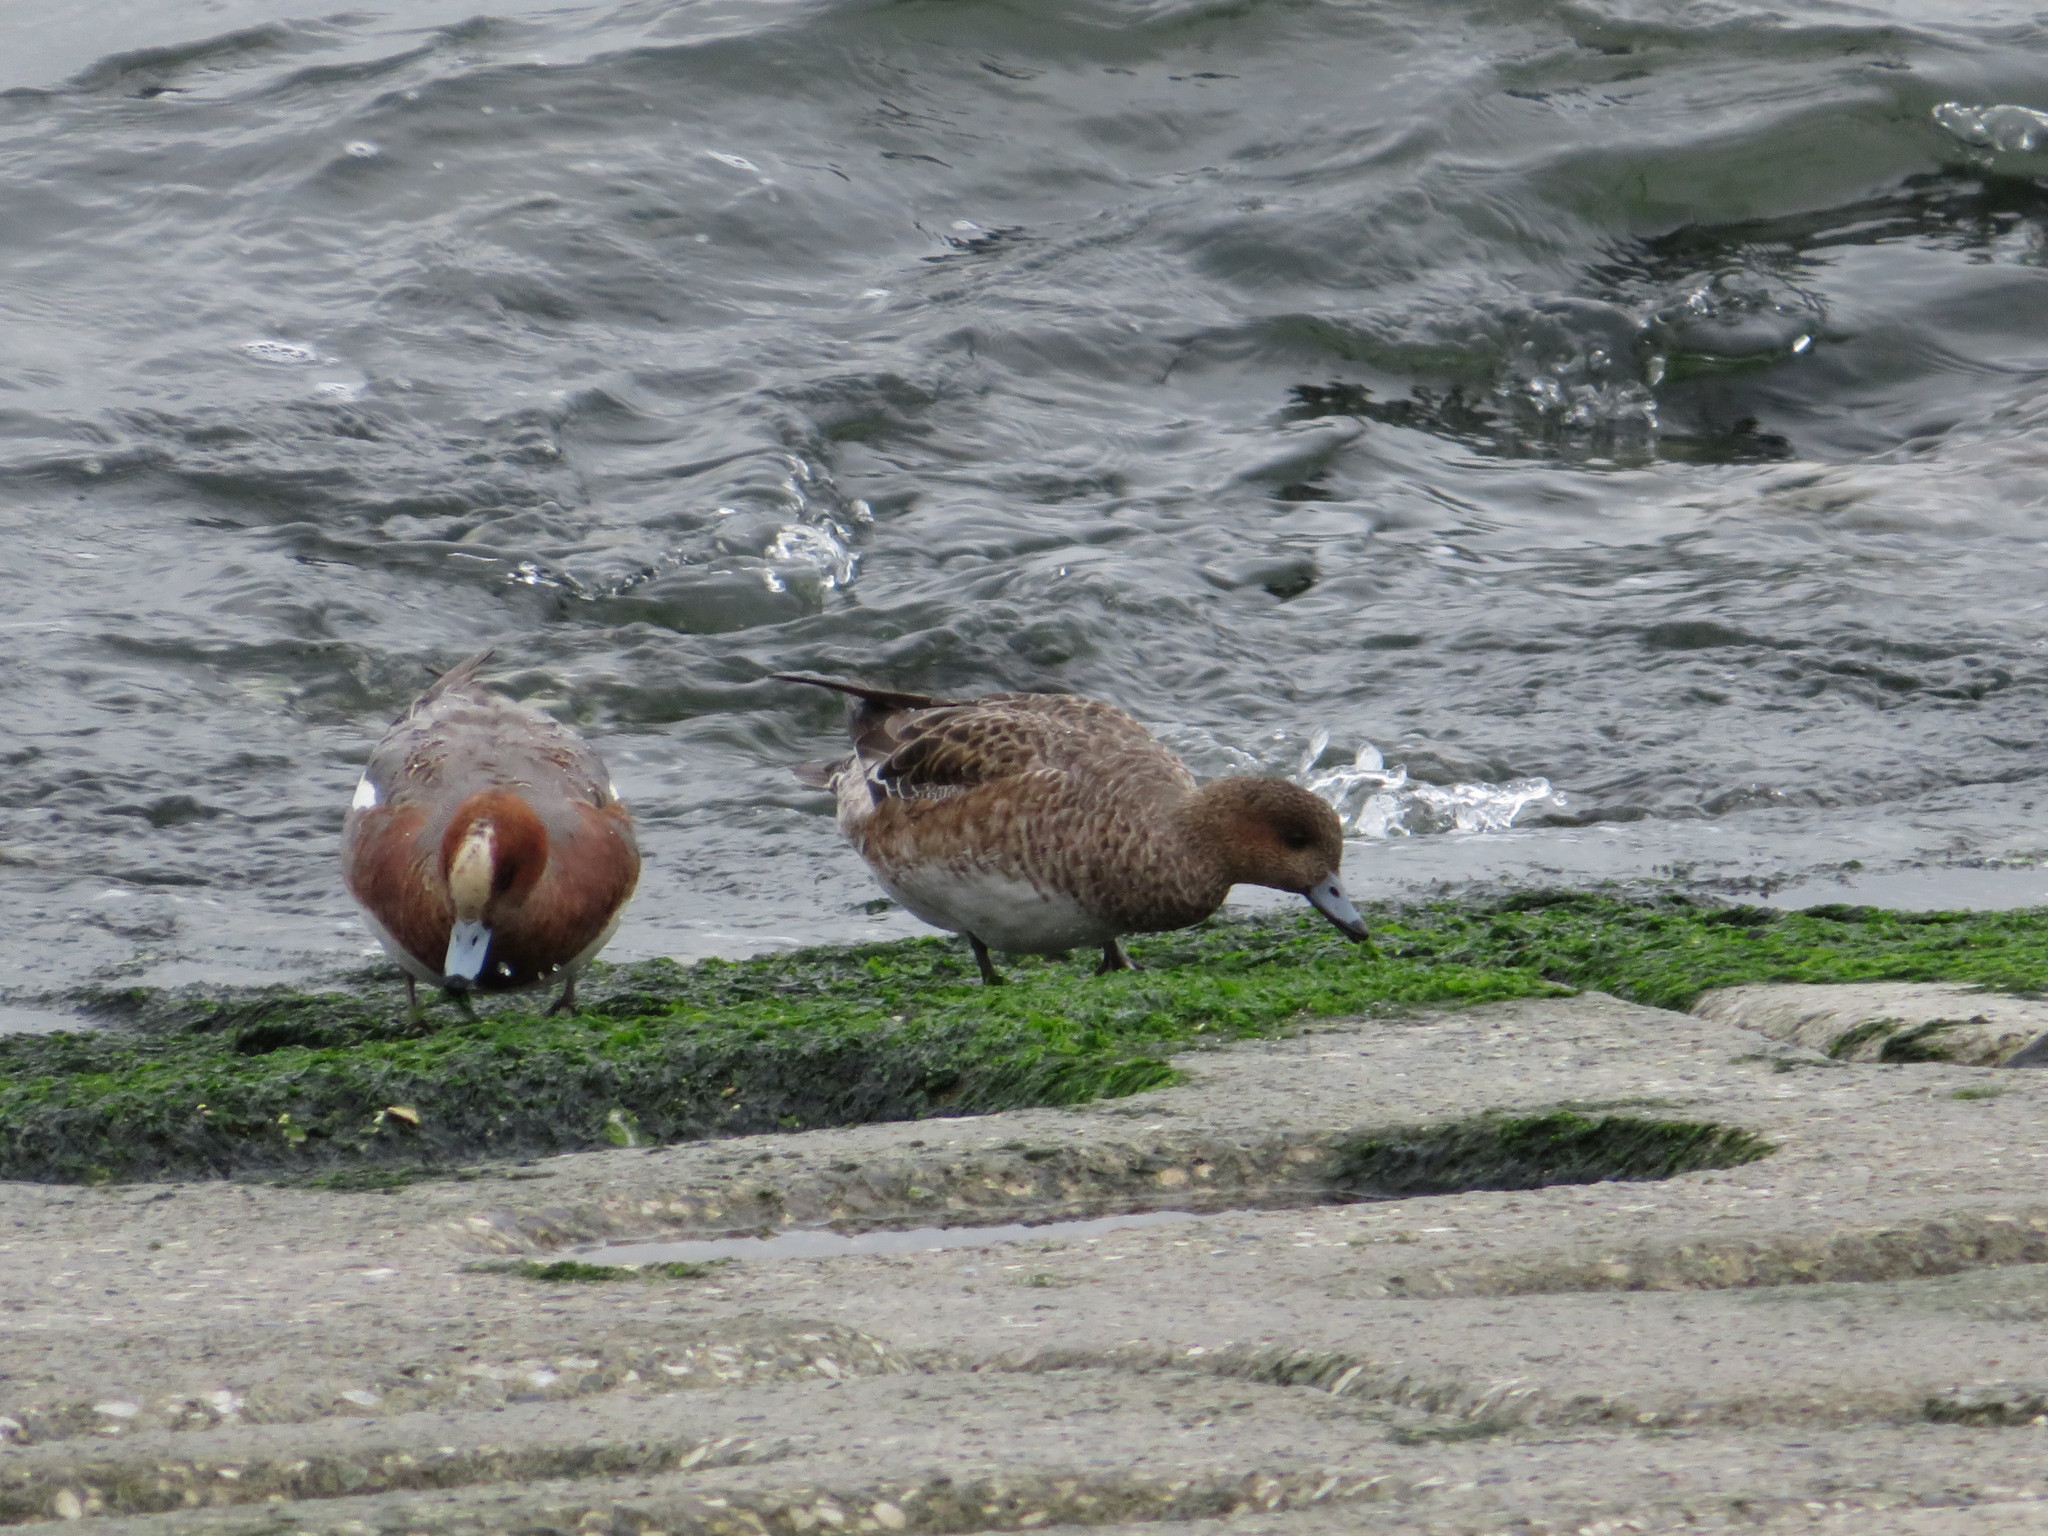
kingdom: Animalia
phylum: Chordata
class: Aves
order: Anseriformes
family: Anatidae
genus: Mareca
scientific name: Mareca penelope
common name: Eurasian wigeon
